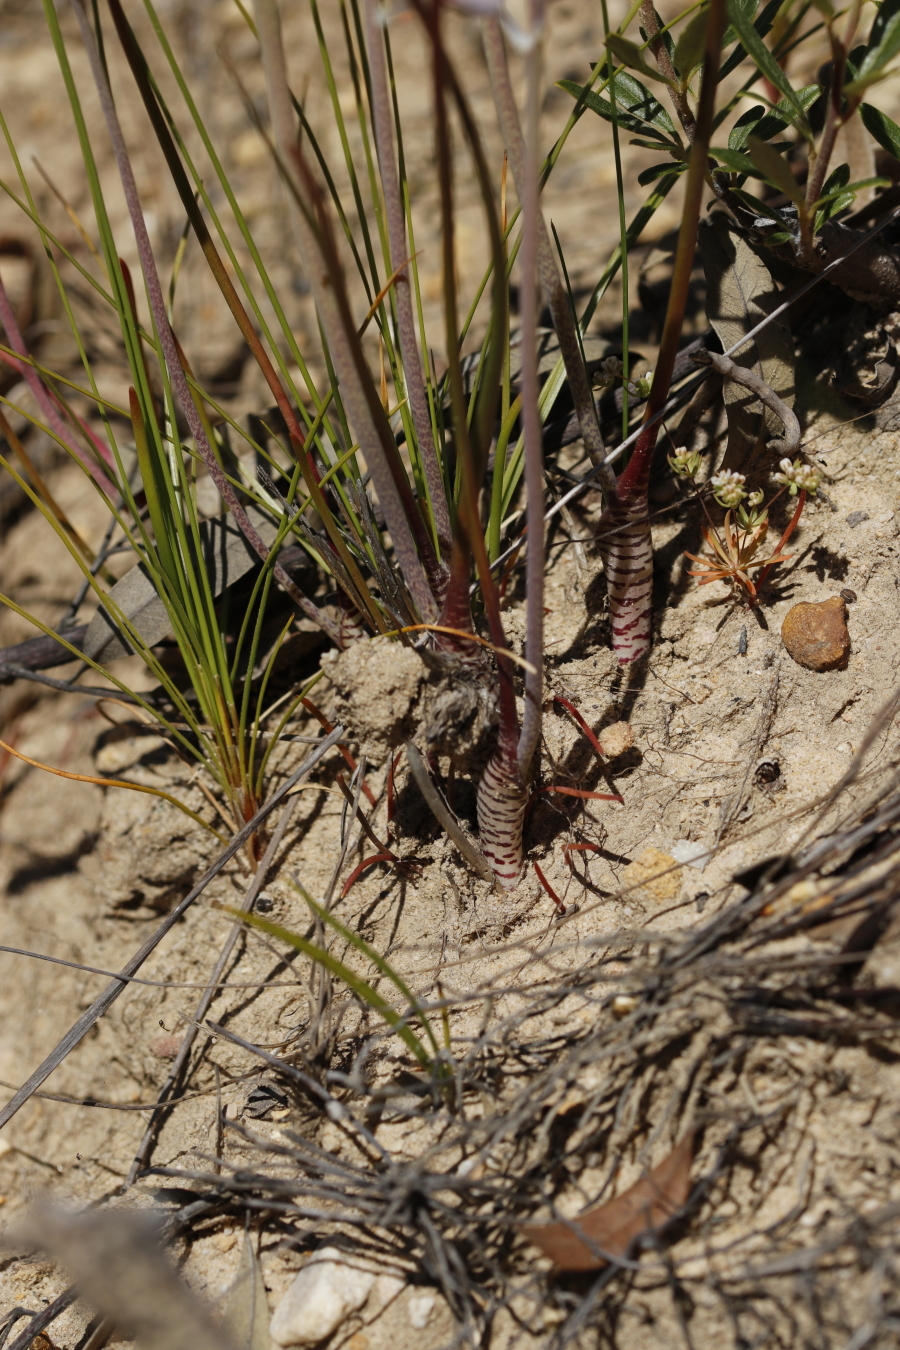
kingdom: Plantae
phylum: Tracheophyta
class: Liliopsida
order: Asparagales
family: Asparagaceae
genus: Lachenalia
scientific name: Lachenalia unifolia
